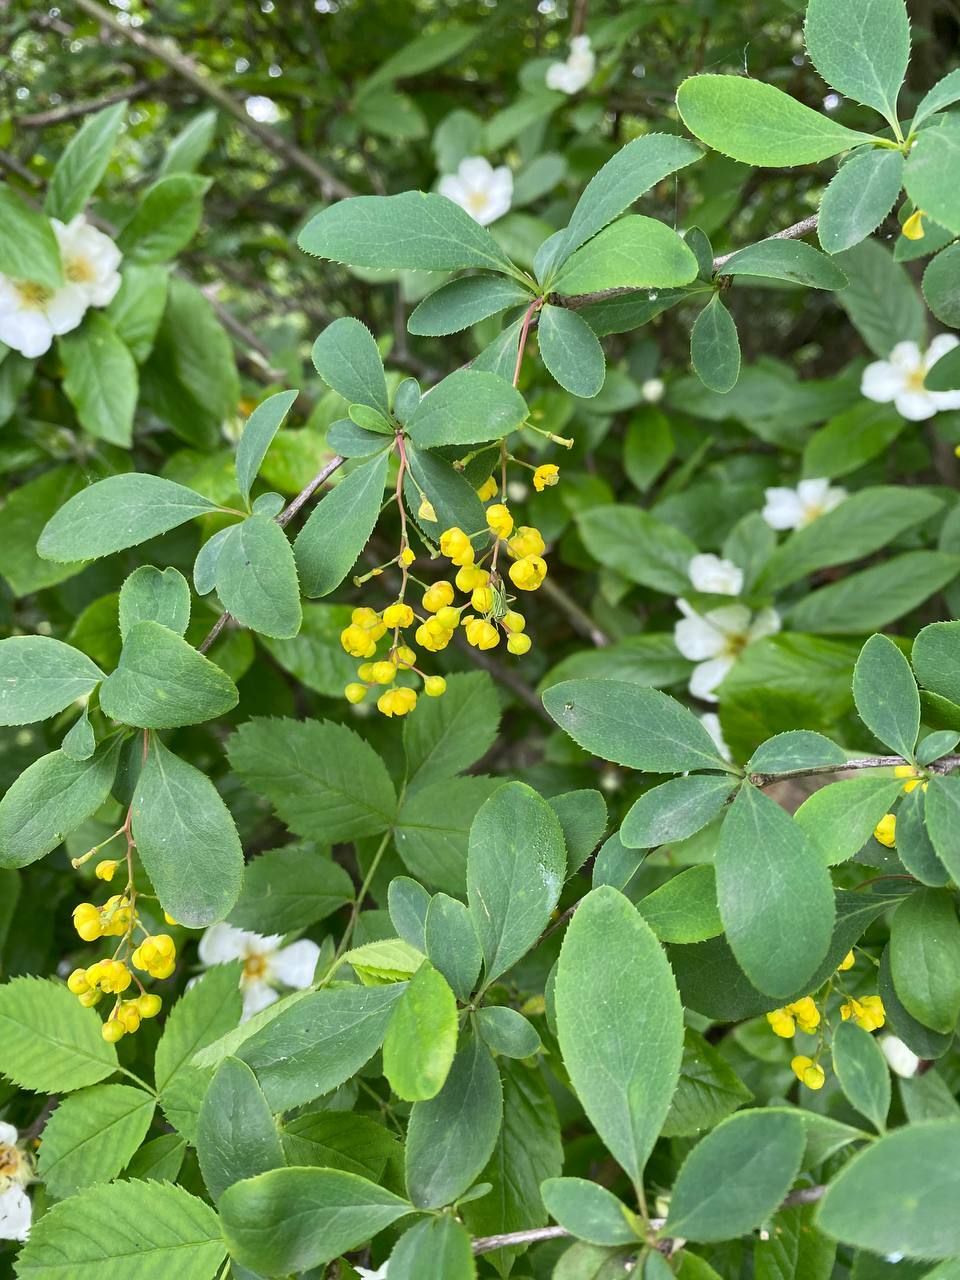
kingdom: Plantae
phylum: Tracheophyta
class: Magnoliopsida
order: Ranunculales
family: Berberidaceae
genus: Berberis
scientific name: Berberis vulgaris
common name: Barberry
